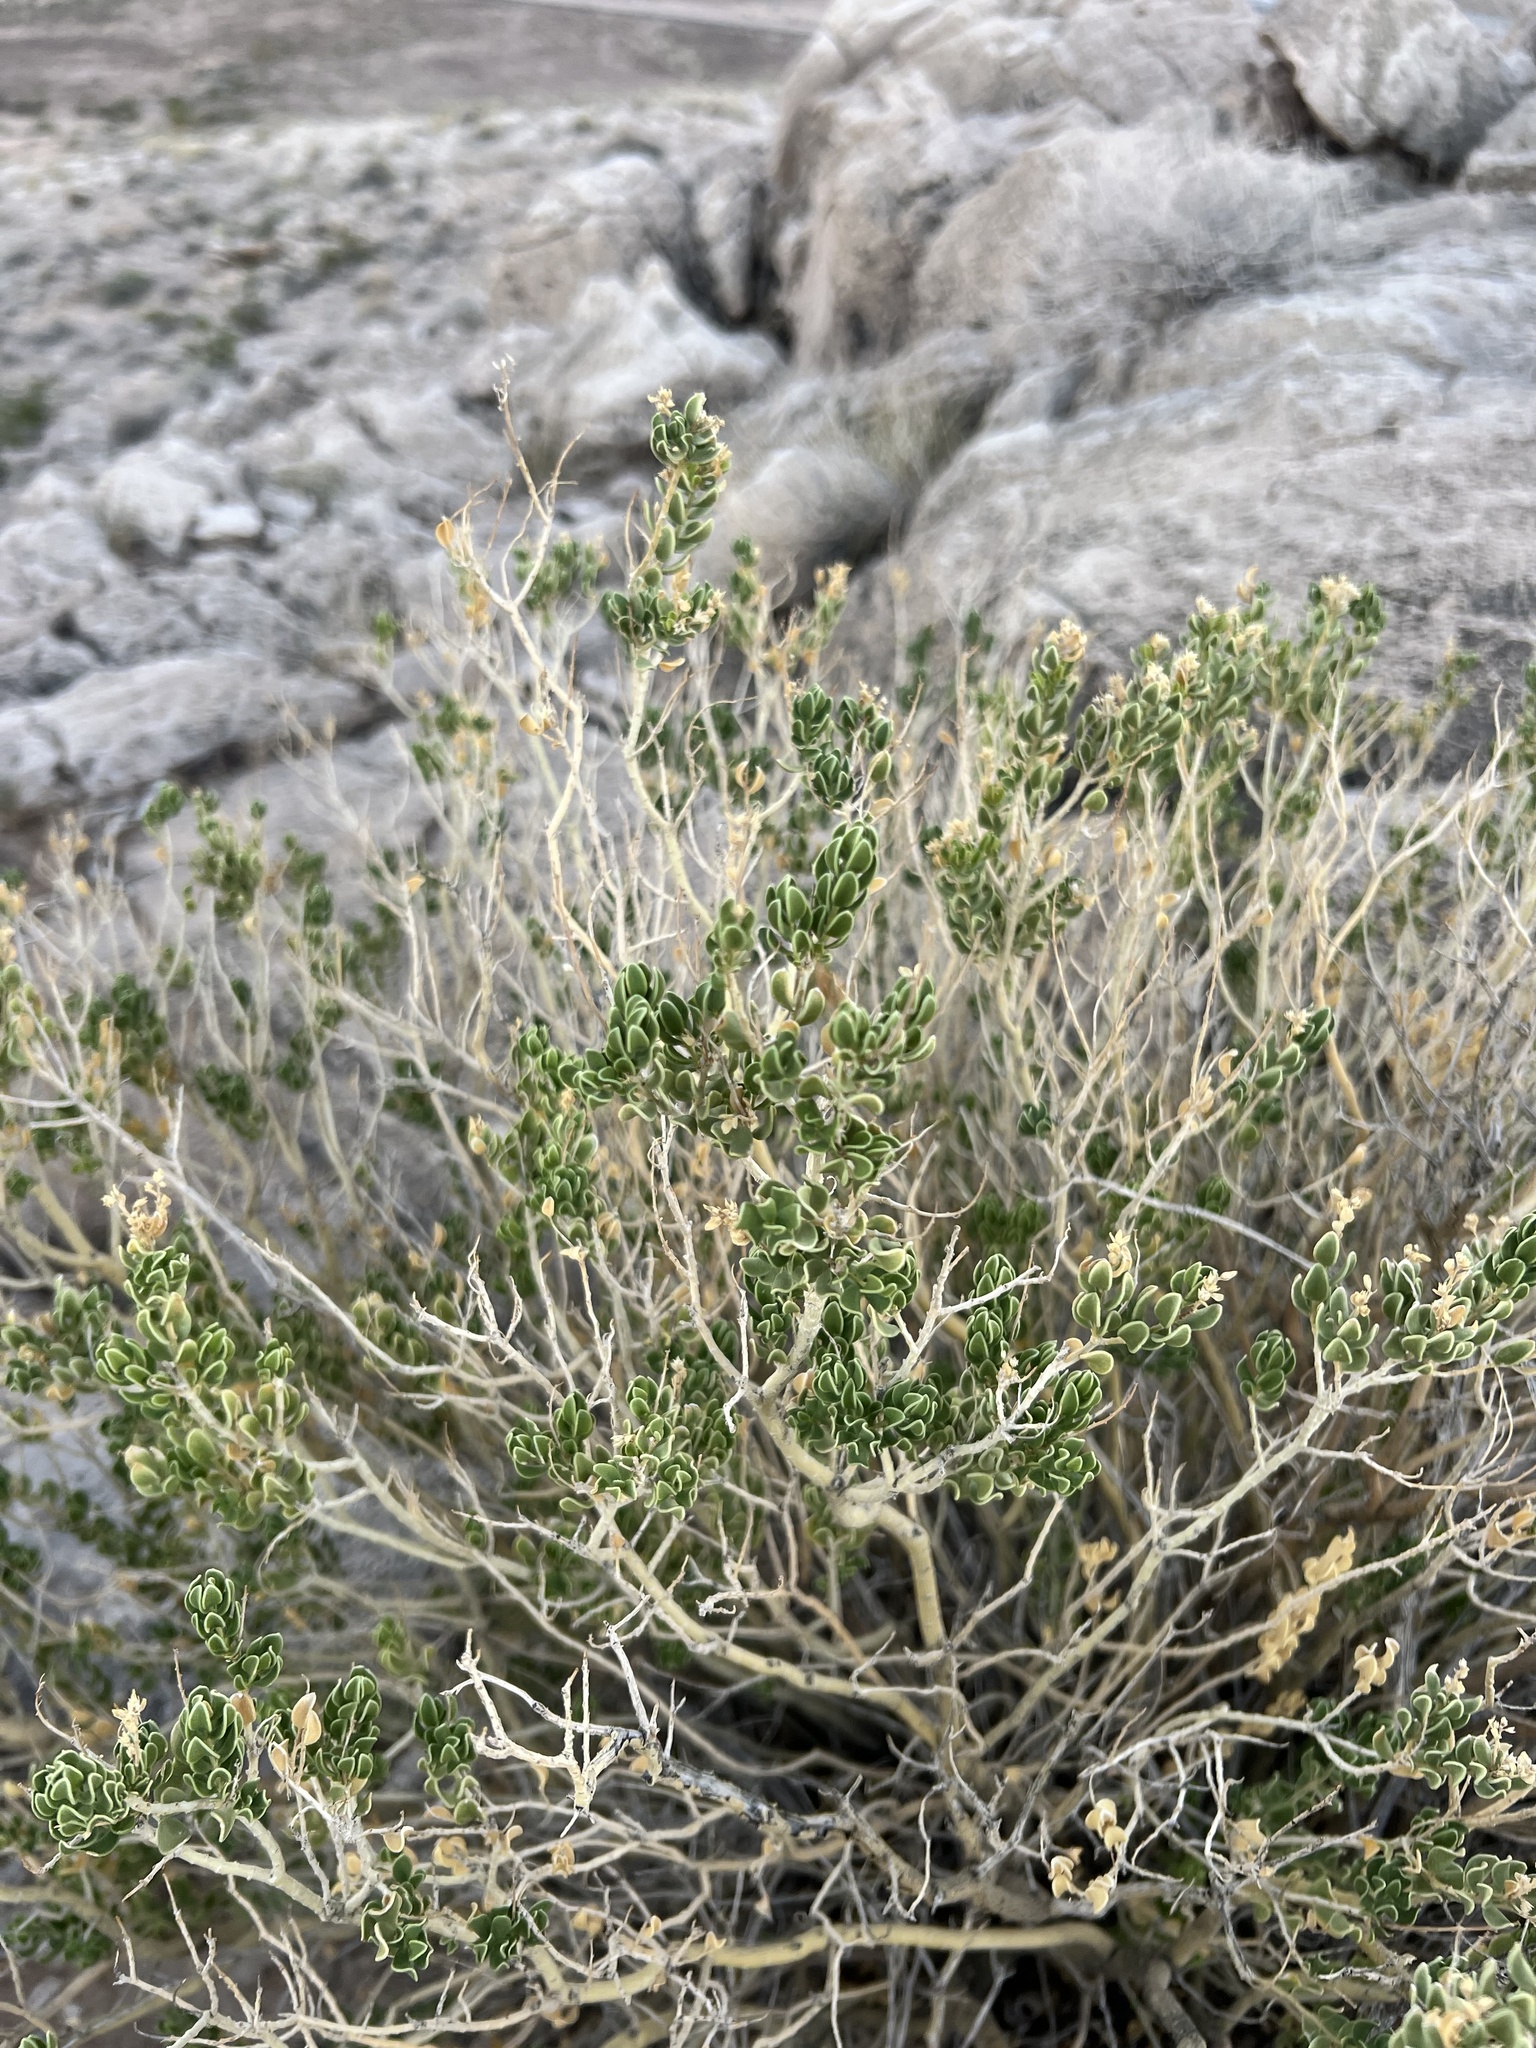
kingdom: Plantae
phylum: Tracheophyta
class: Magnoliopsida
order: Celastrales
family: Celastraceae
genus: Mortonia
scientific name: Mortonia utahensis
